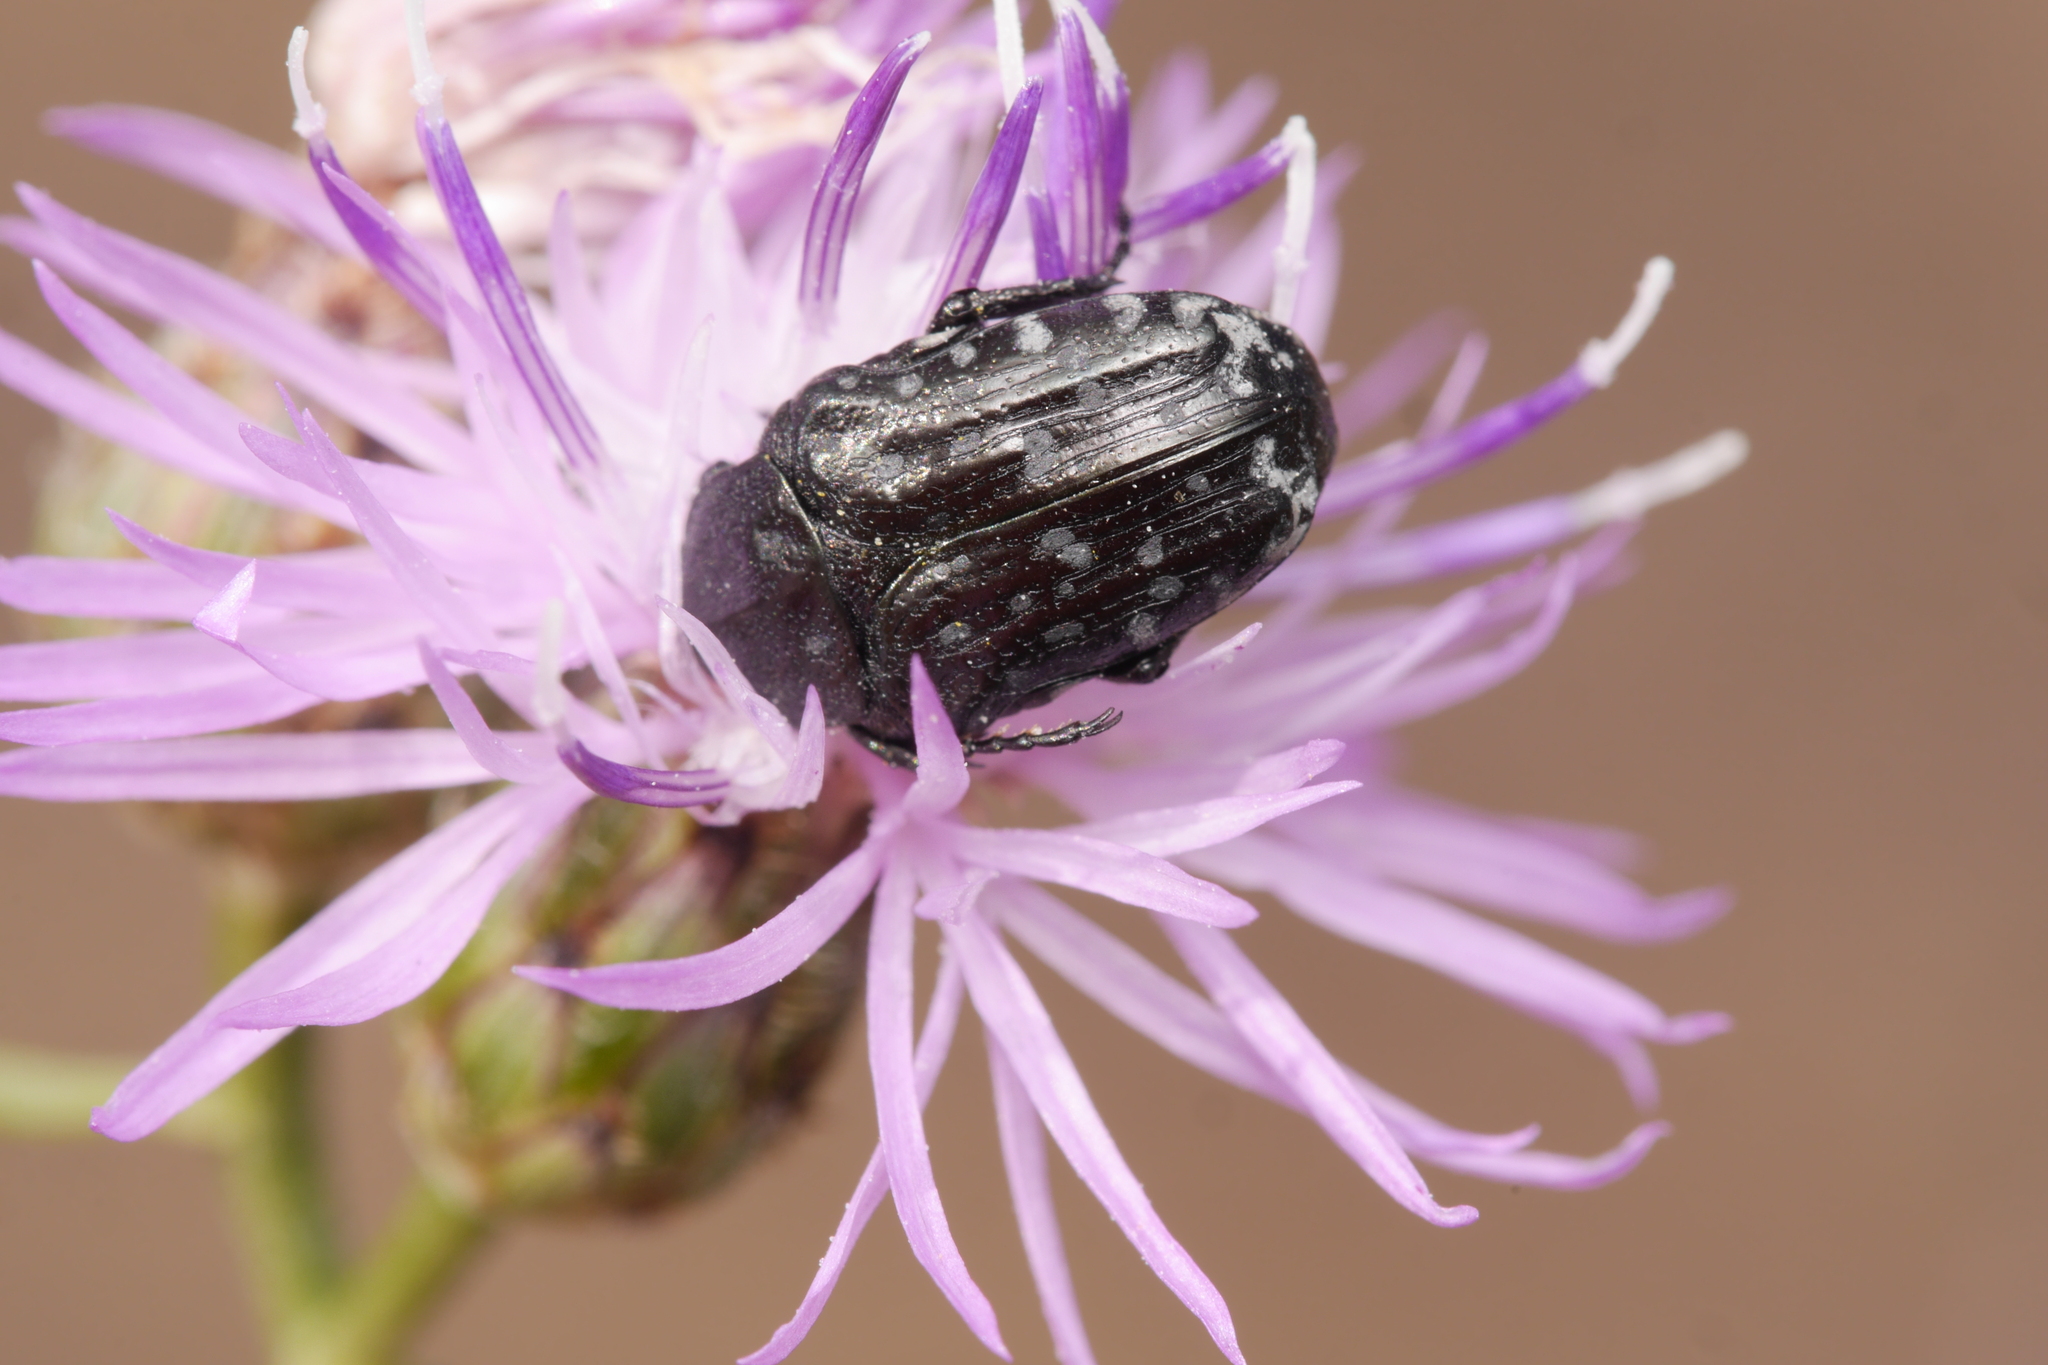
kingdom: Animalia
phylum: Arthropoda
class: Insecta
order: Coleoptera
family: Scarabaeidae
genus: Oxythyrea
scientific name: Oxythyrea funesta
